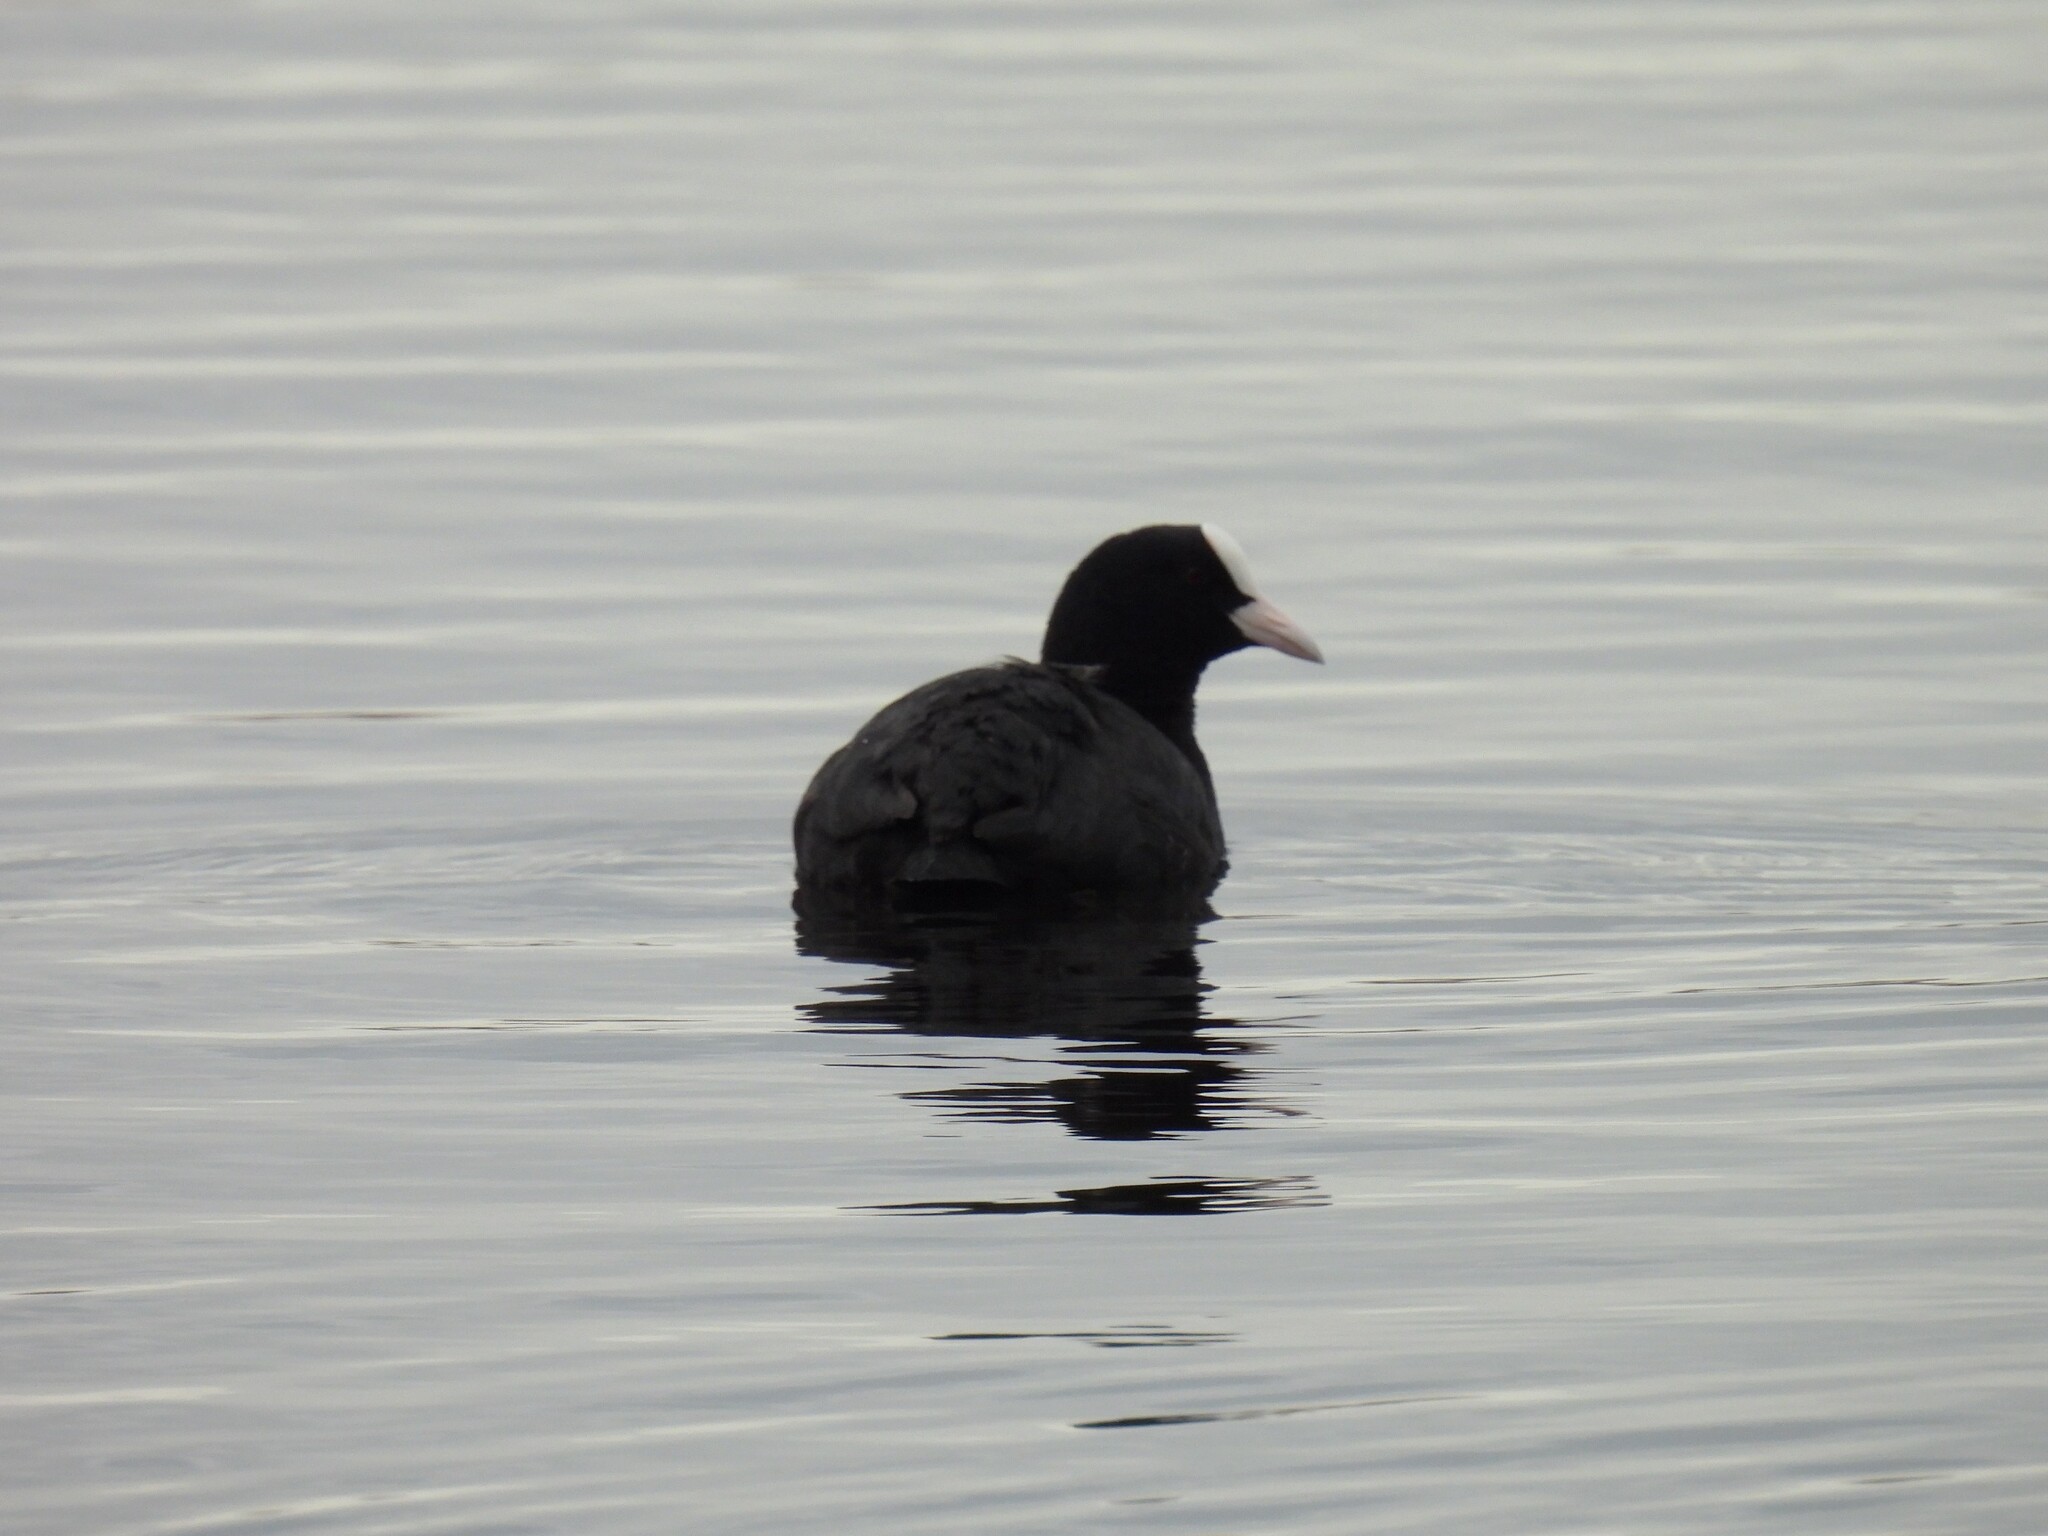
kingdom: Animalia
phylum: Chordata
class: Aves
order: Gruiformes
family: Rallidae
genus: Fulica
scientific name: Fulica atra
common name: Eurasian coot
